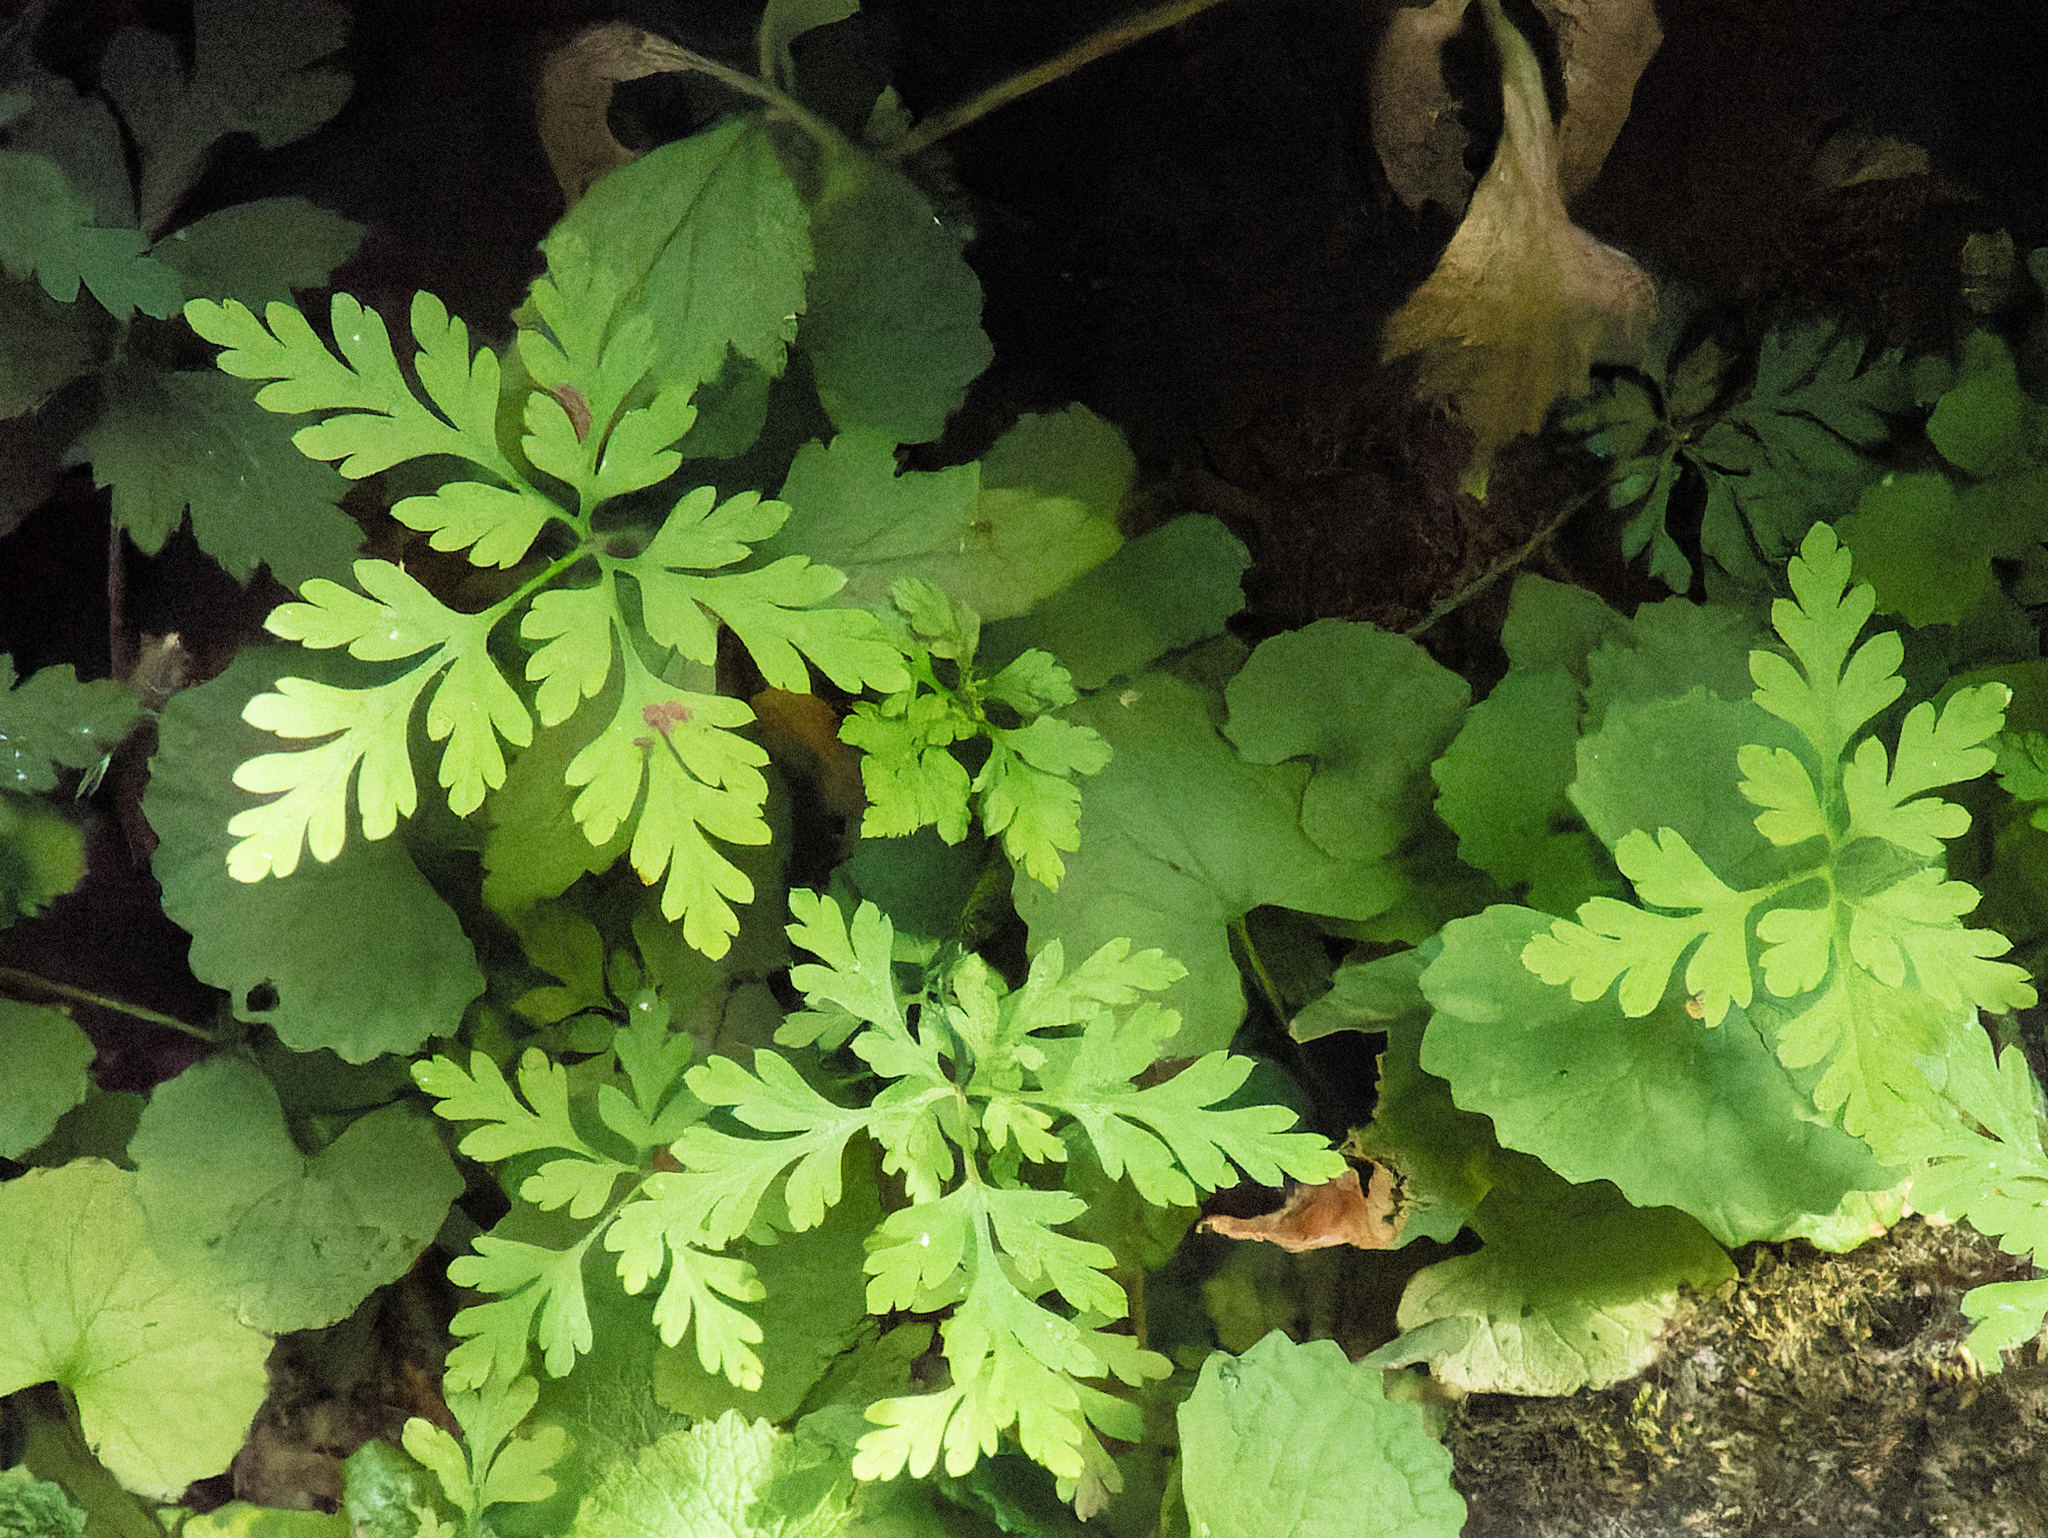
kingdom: Plantae
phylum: Tracheophyta
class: Magnoliopsida
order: Geraniales
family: Geraniaceae
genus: Geranium
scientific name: Geranium robertianum
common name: Herb-robert
